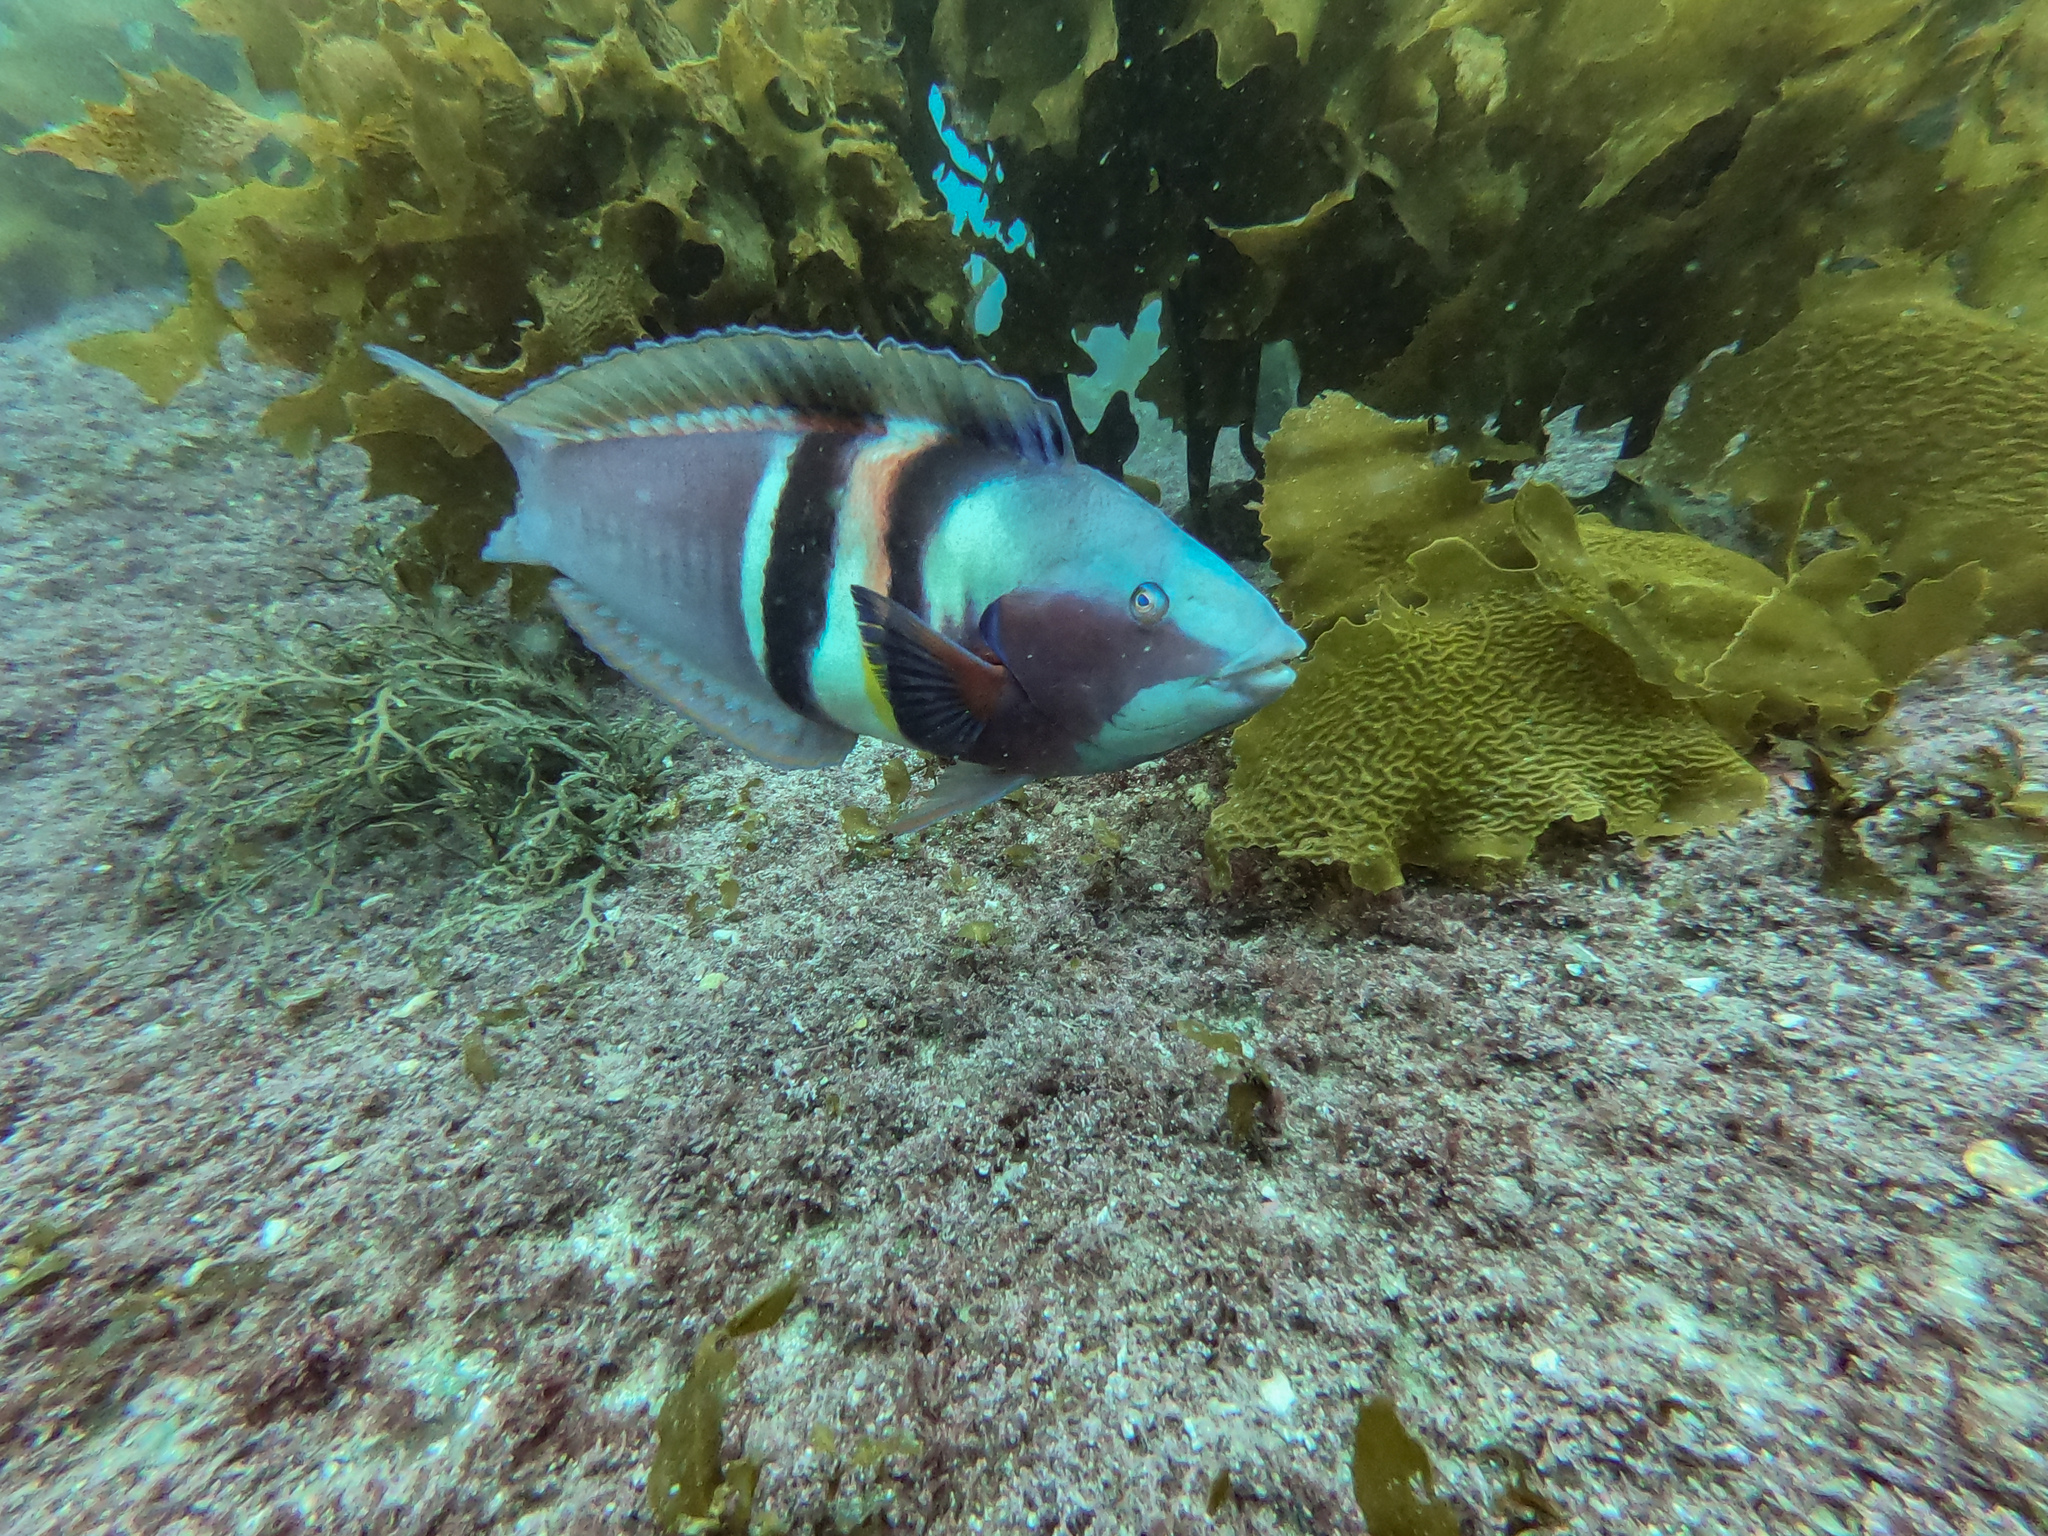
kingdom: Animalia
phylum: Chordata
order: Perciformes
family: Labridae
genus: Coris
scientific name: Coris sandeyeri
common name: Sandager's wrasse
